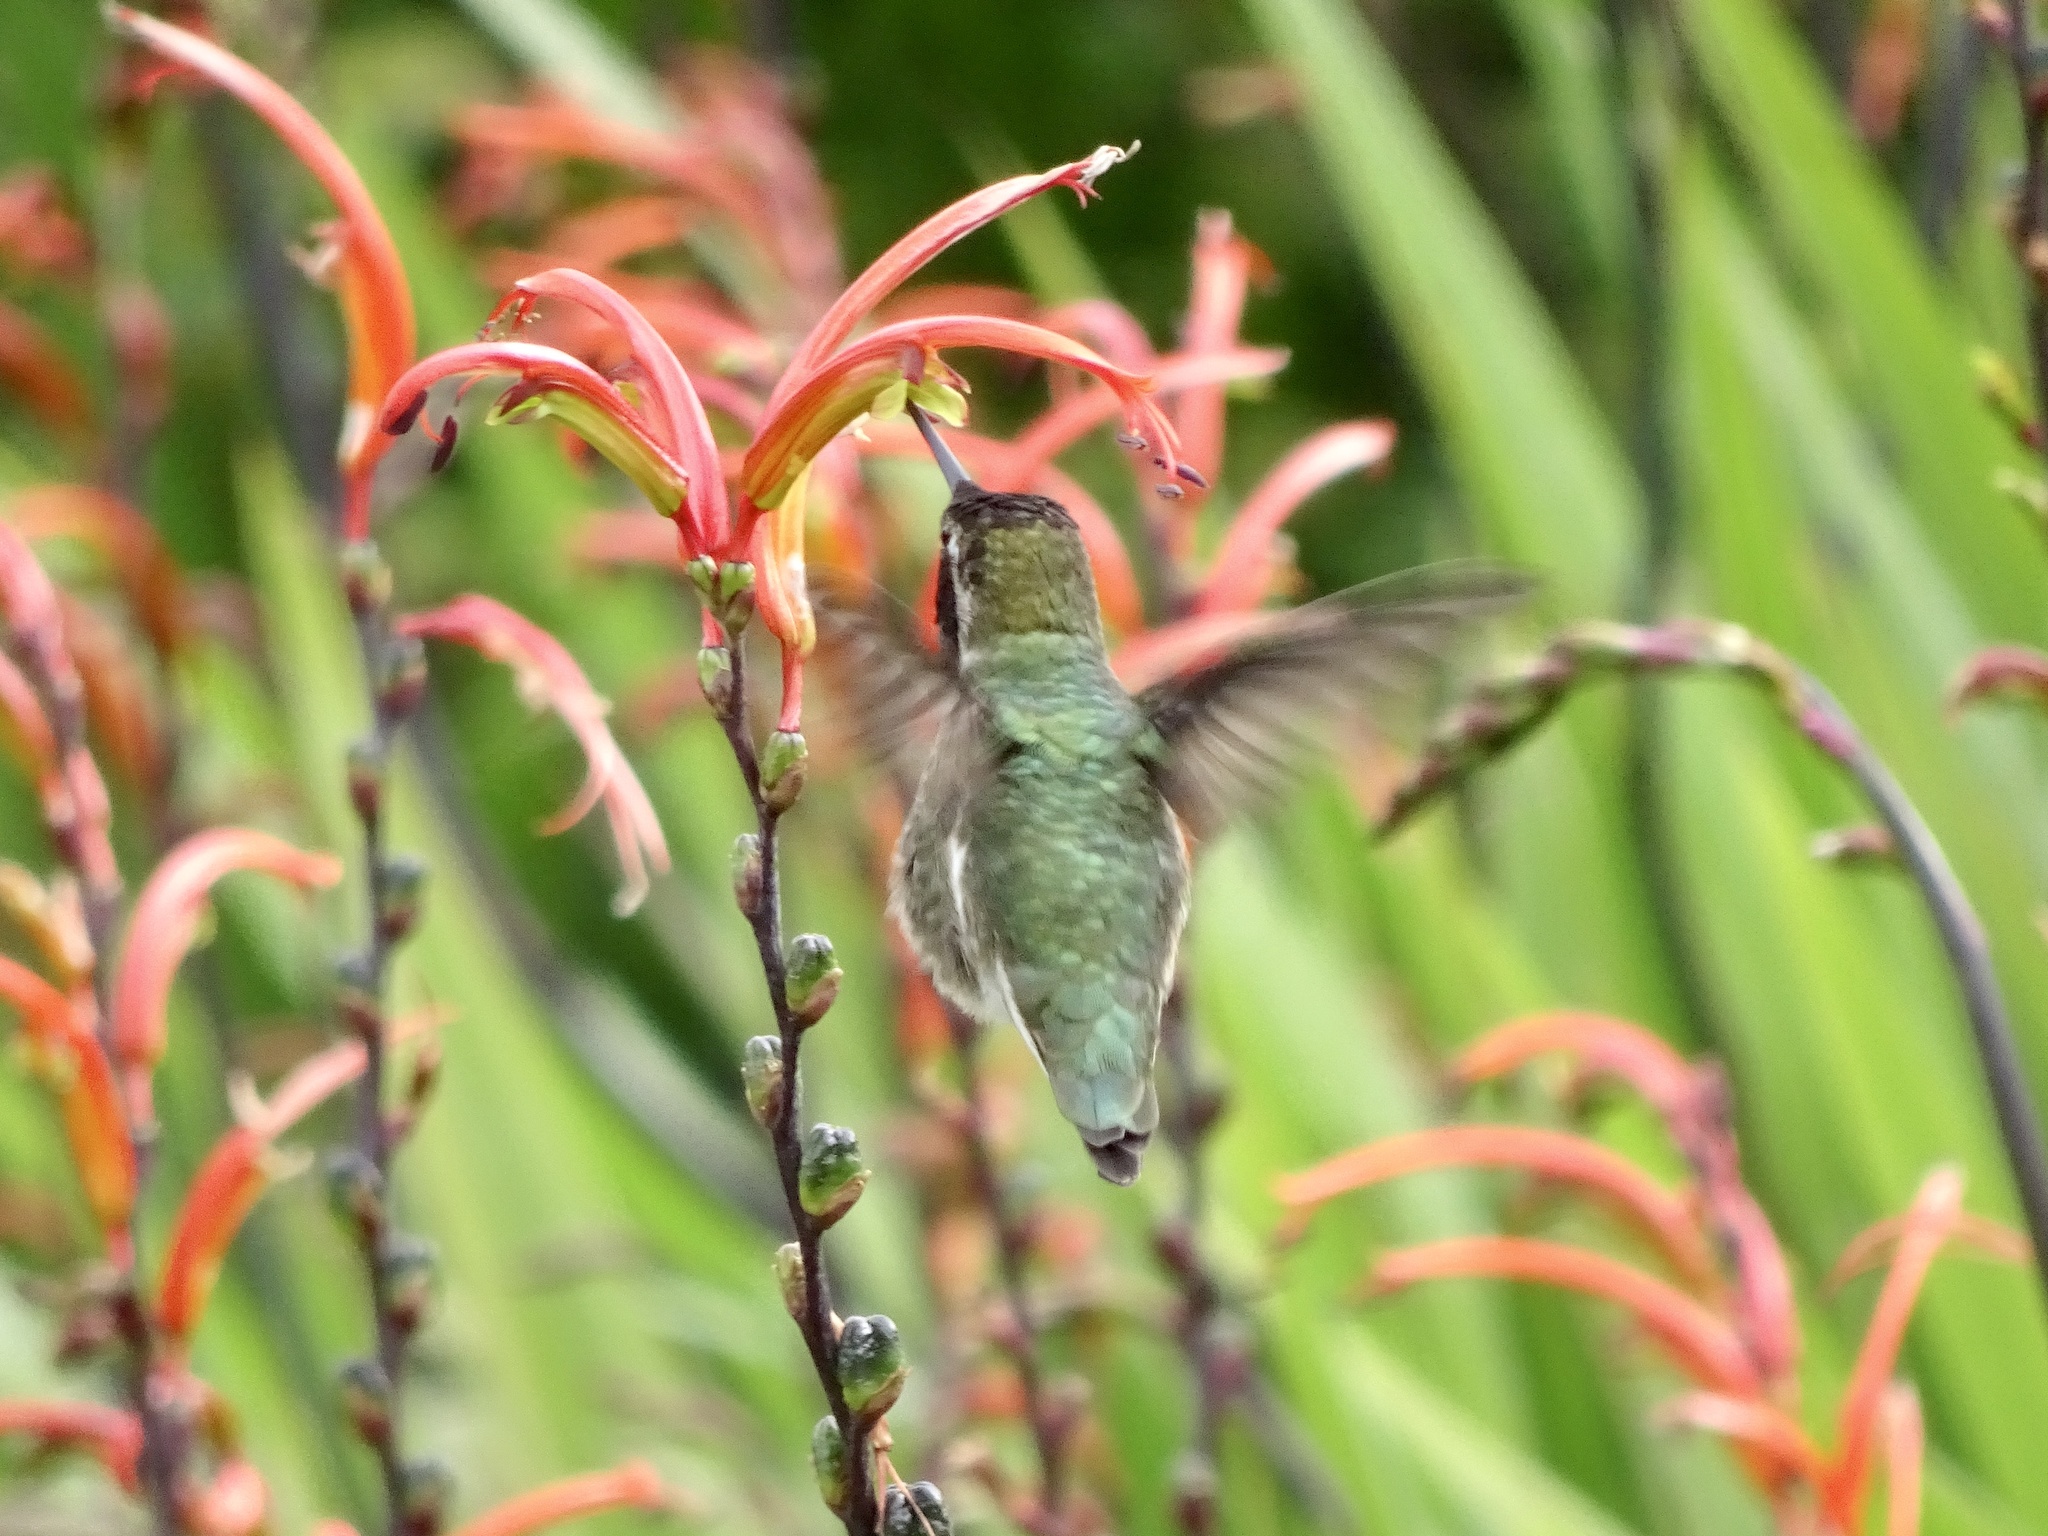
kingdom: Animalia
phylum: Chordata
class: Aves
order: Apodiformes
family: Trochilidae
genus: Calypte
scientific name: Calypte anna
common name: Anna's hummingbird
